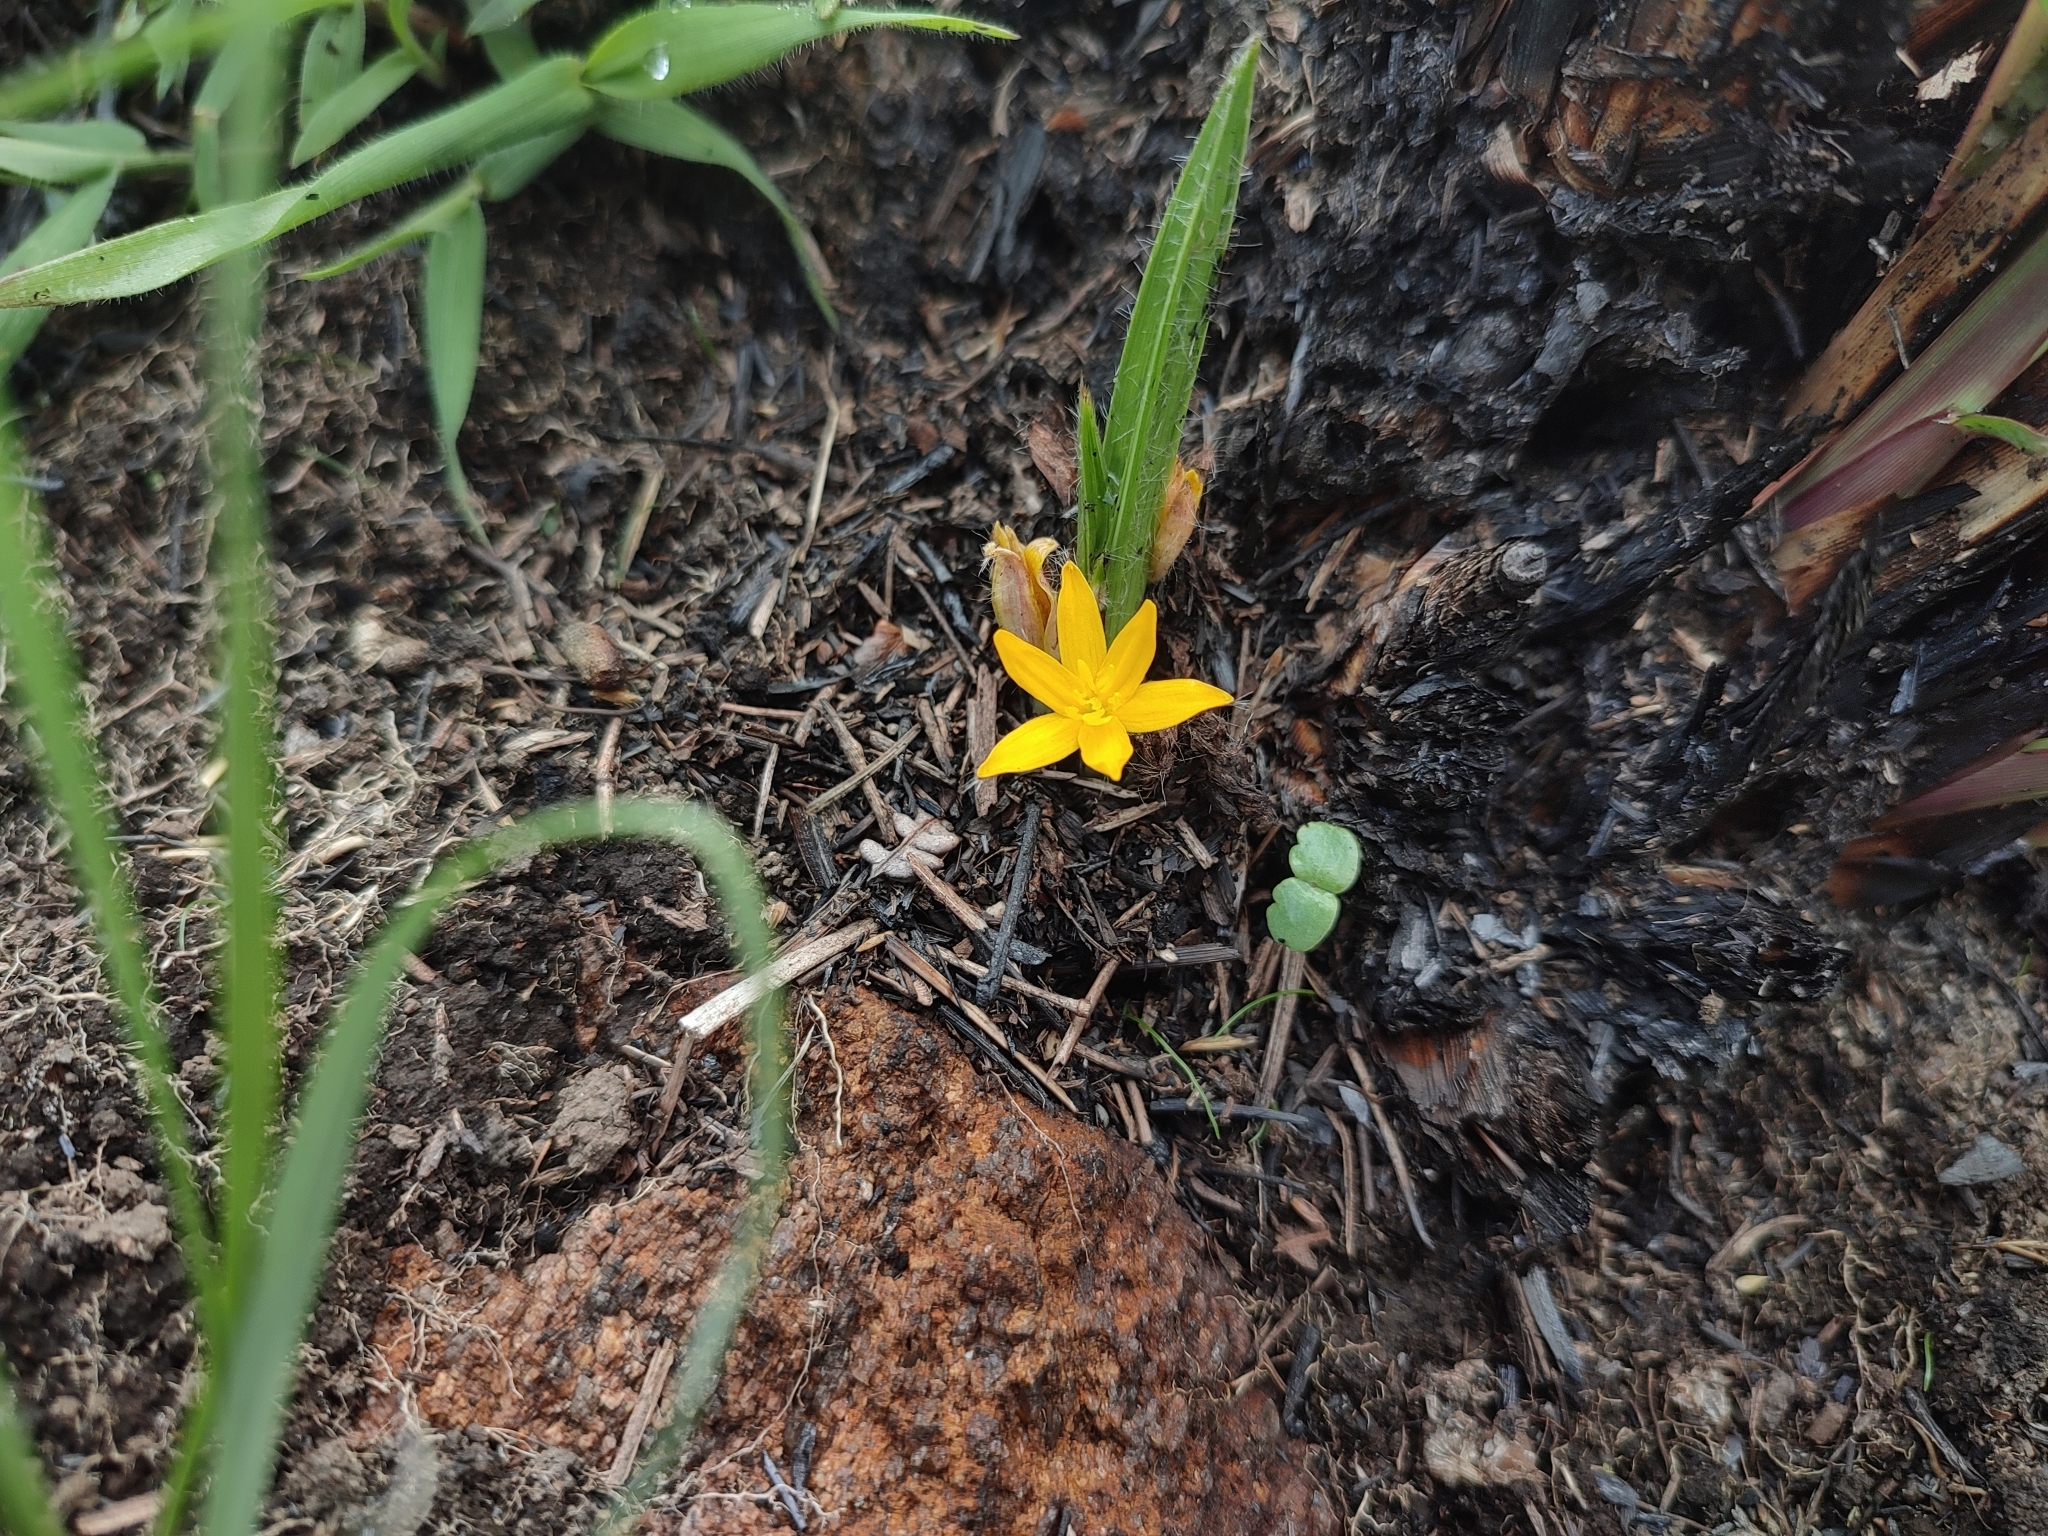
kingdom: Plantae
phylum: Tracheophyta
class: Liliopsida
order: Asparagales
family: Hypoxidaceae
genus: Curculigo
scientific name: Curculigo orchioides
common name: Golden eye-grass
